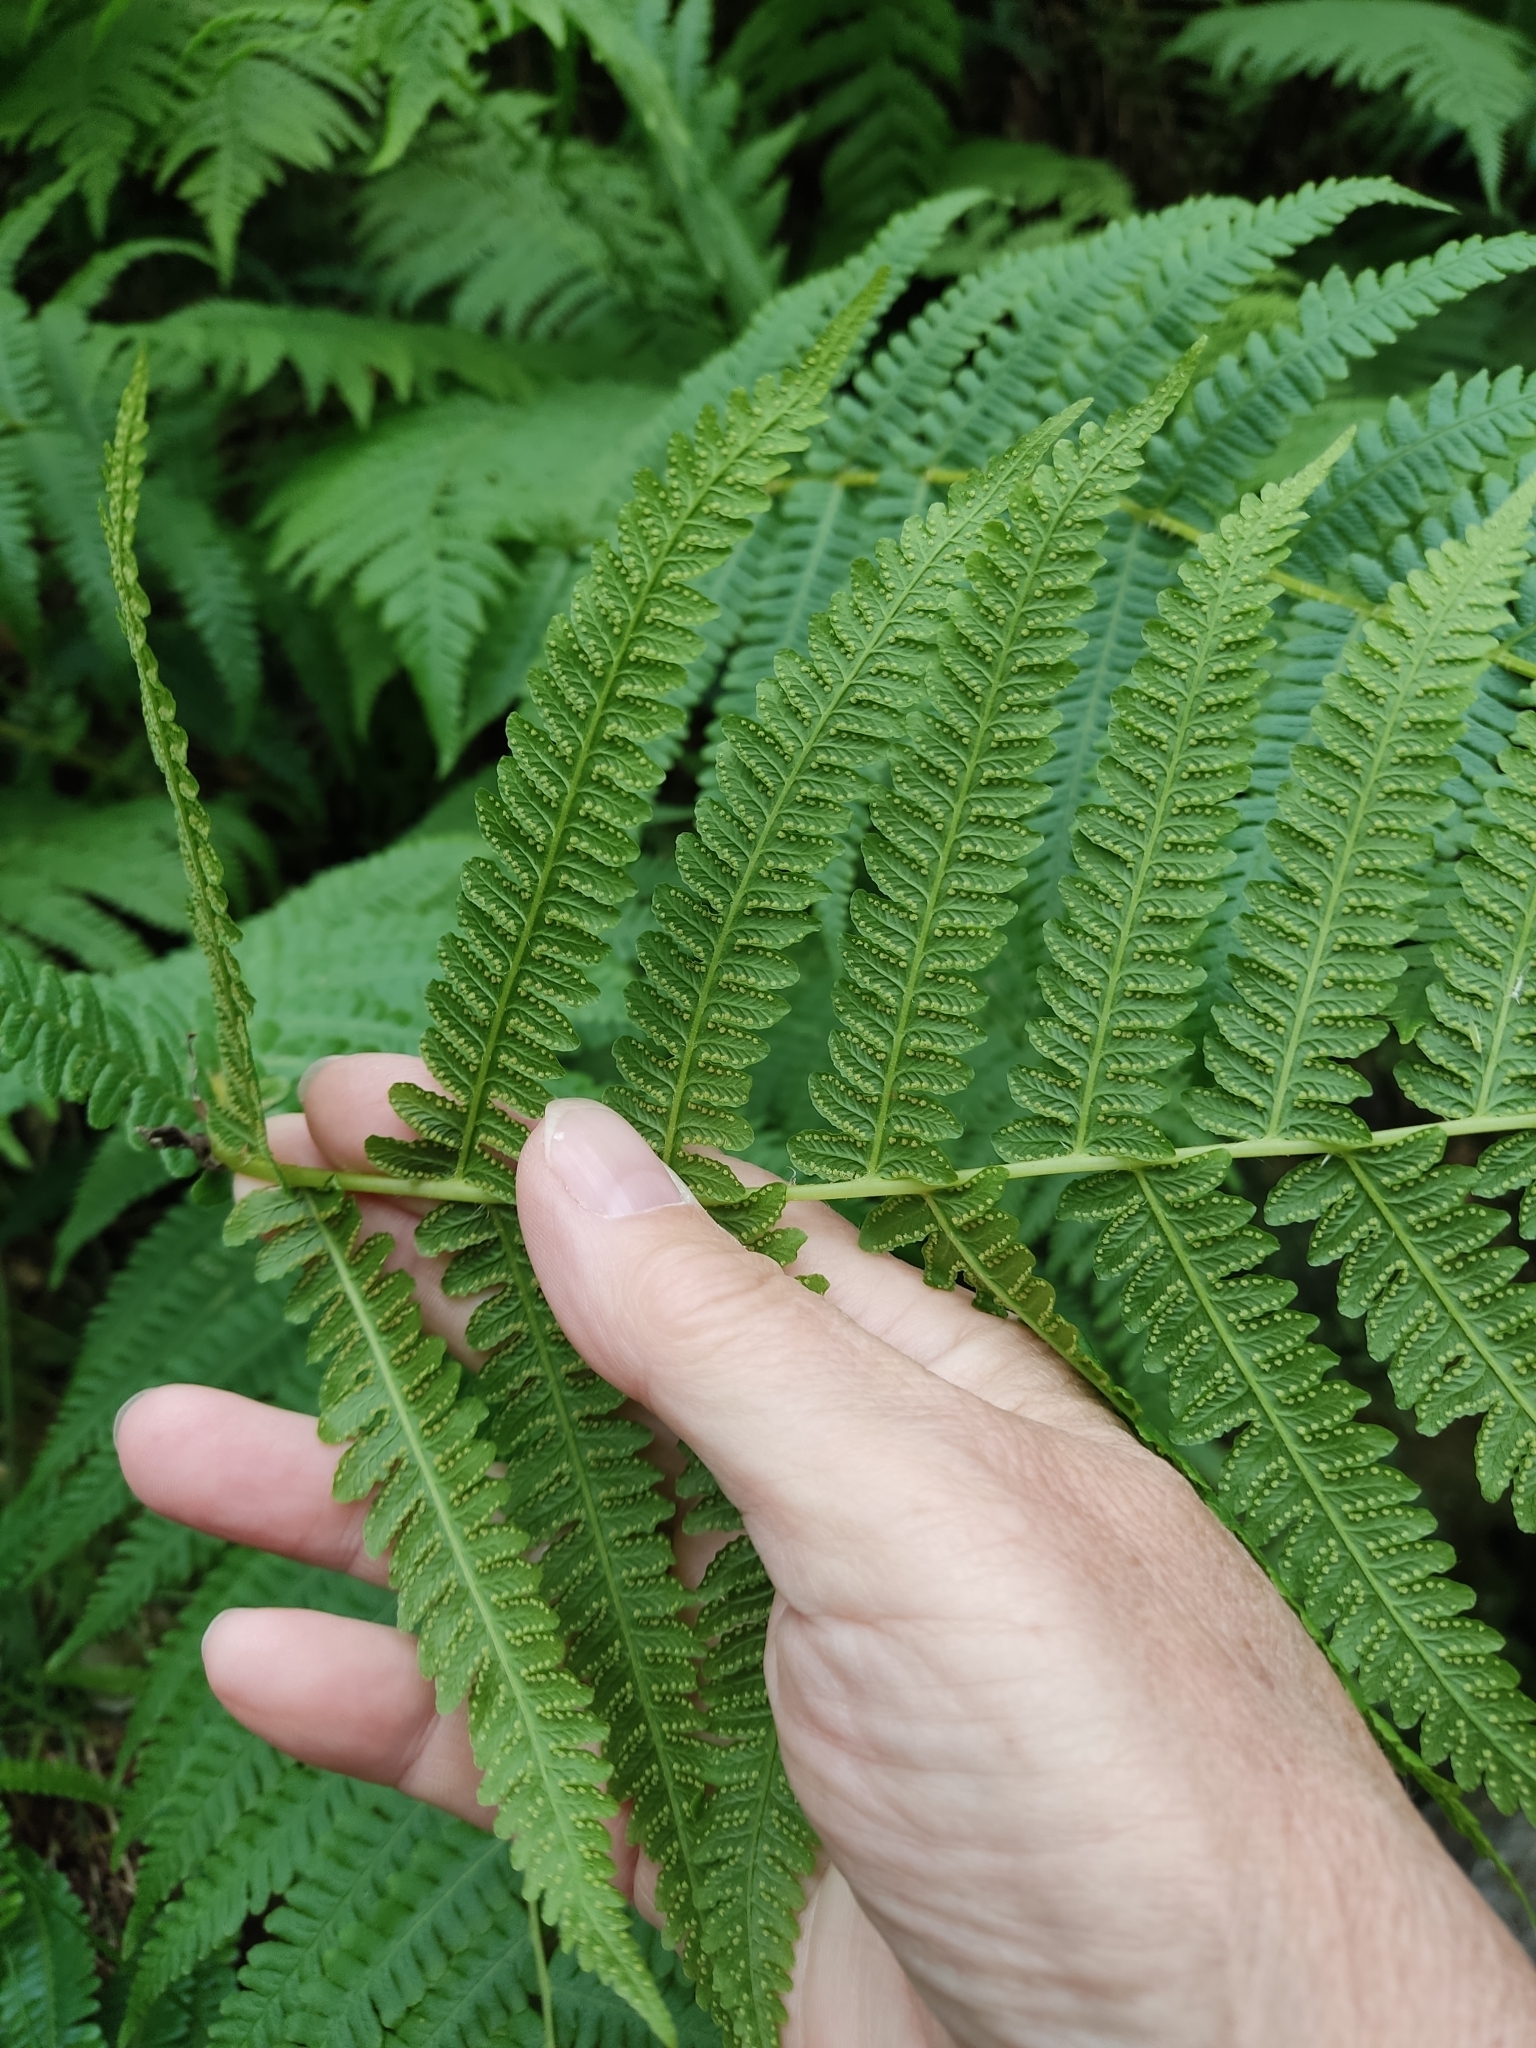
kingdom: Plantae
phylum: Tracheophyta
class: Polypodiopsida
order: Polypodiales
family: Thelypteridaceae
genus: Oreopteris
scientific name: Oreopteris limbosperma
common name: Lemon-scented fern
